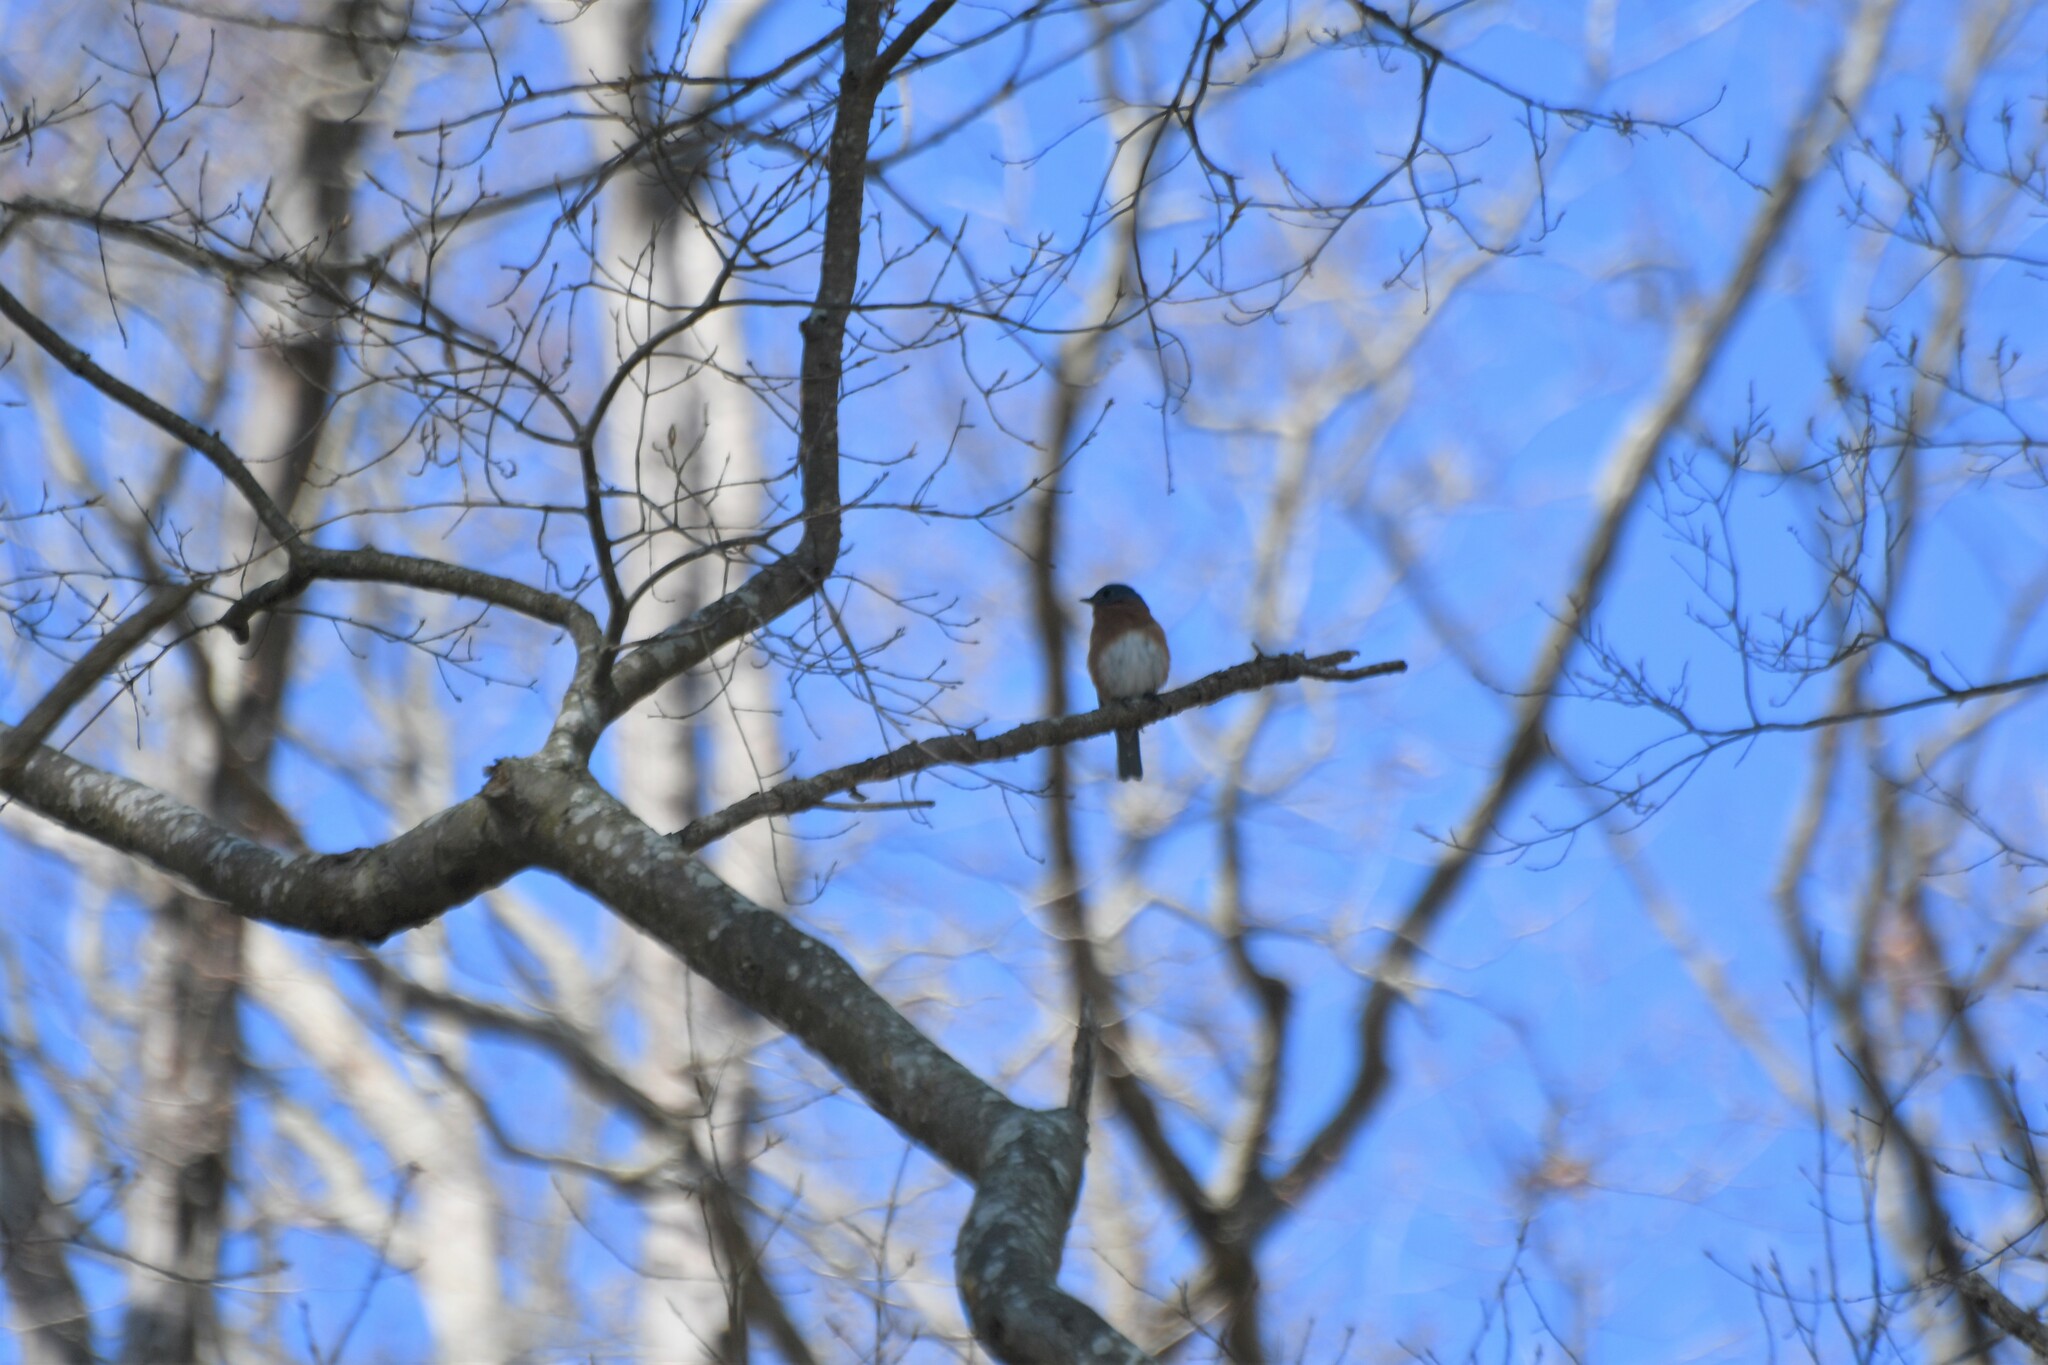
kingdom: Animalia
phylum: Chordata
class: Aves
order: Passeriformes
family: Turdidae
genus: Sialia
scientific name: Sialia sialis
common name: Eastern bluebird
